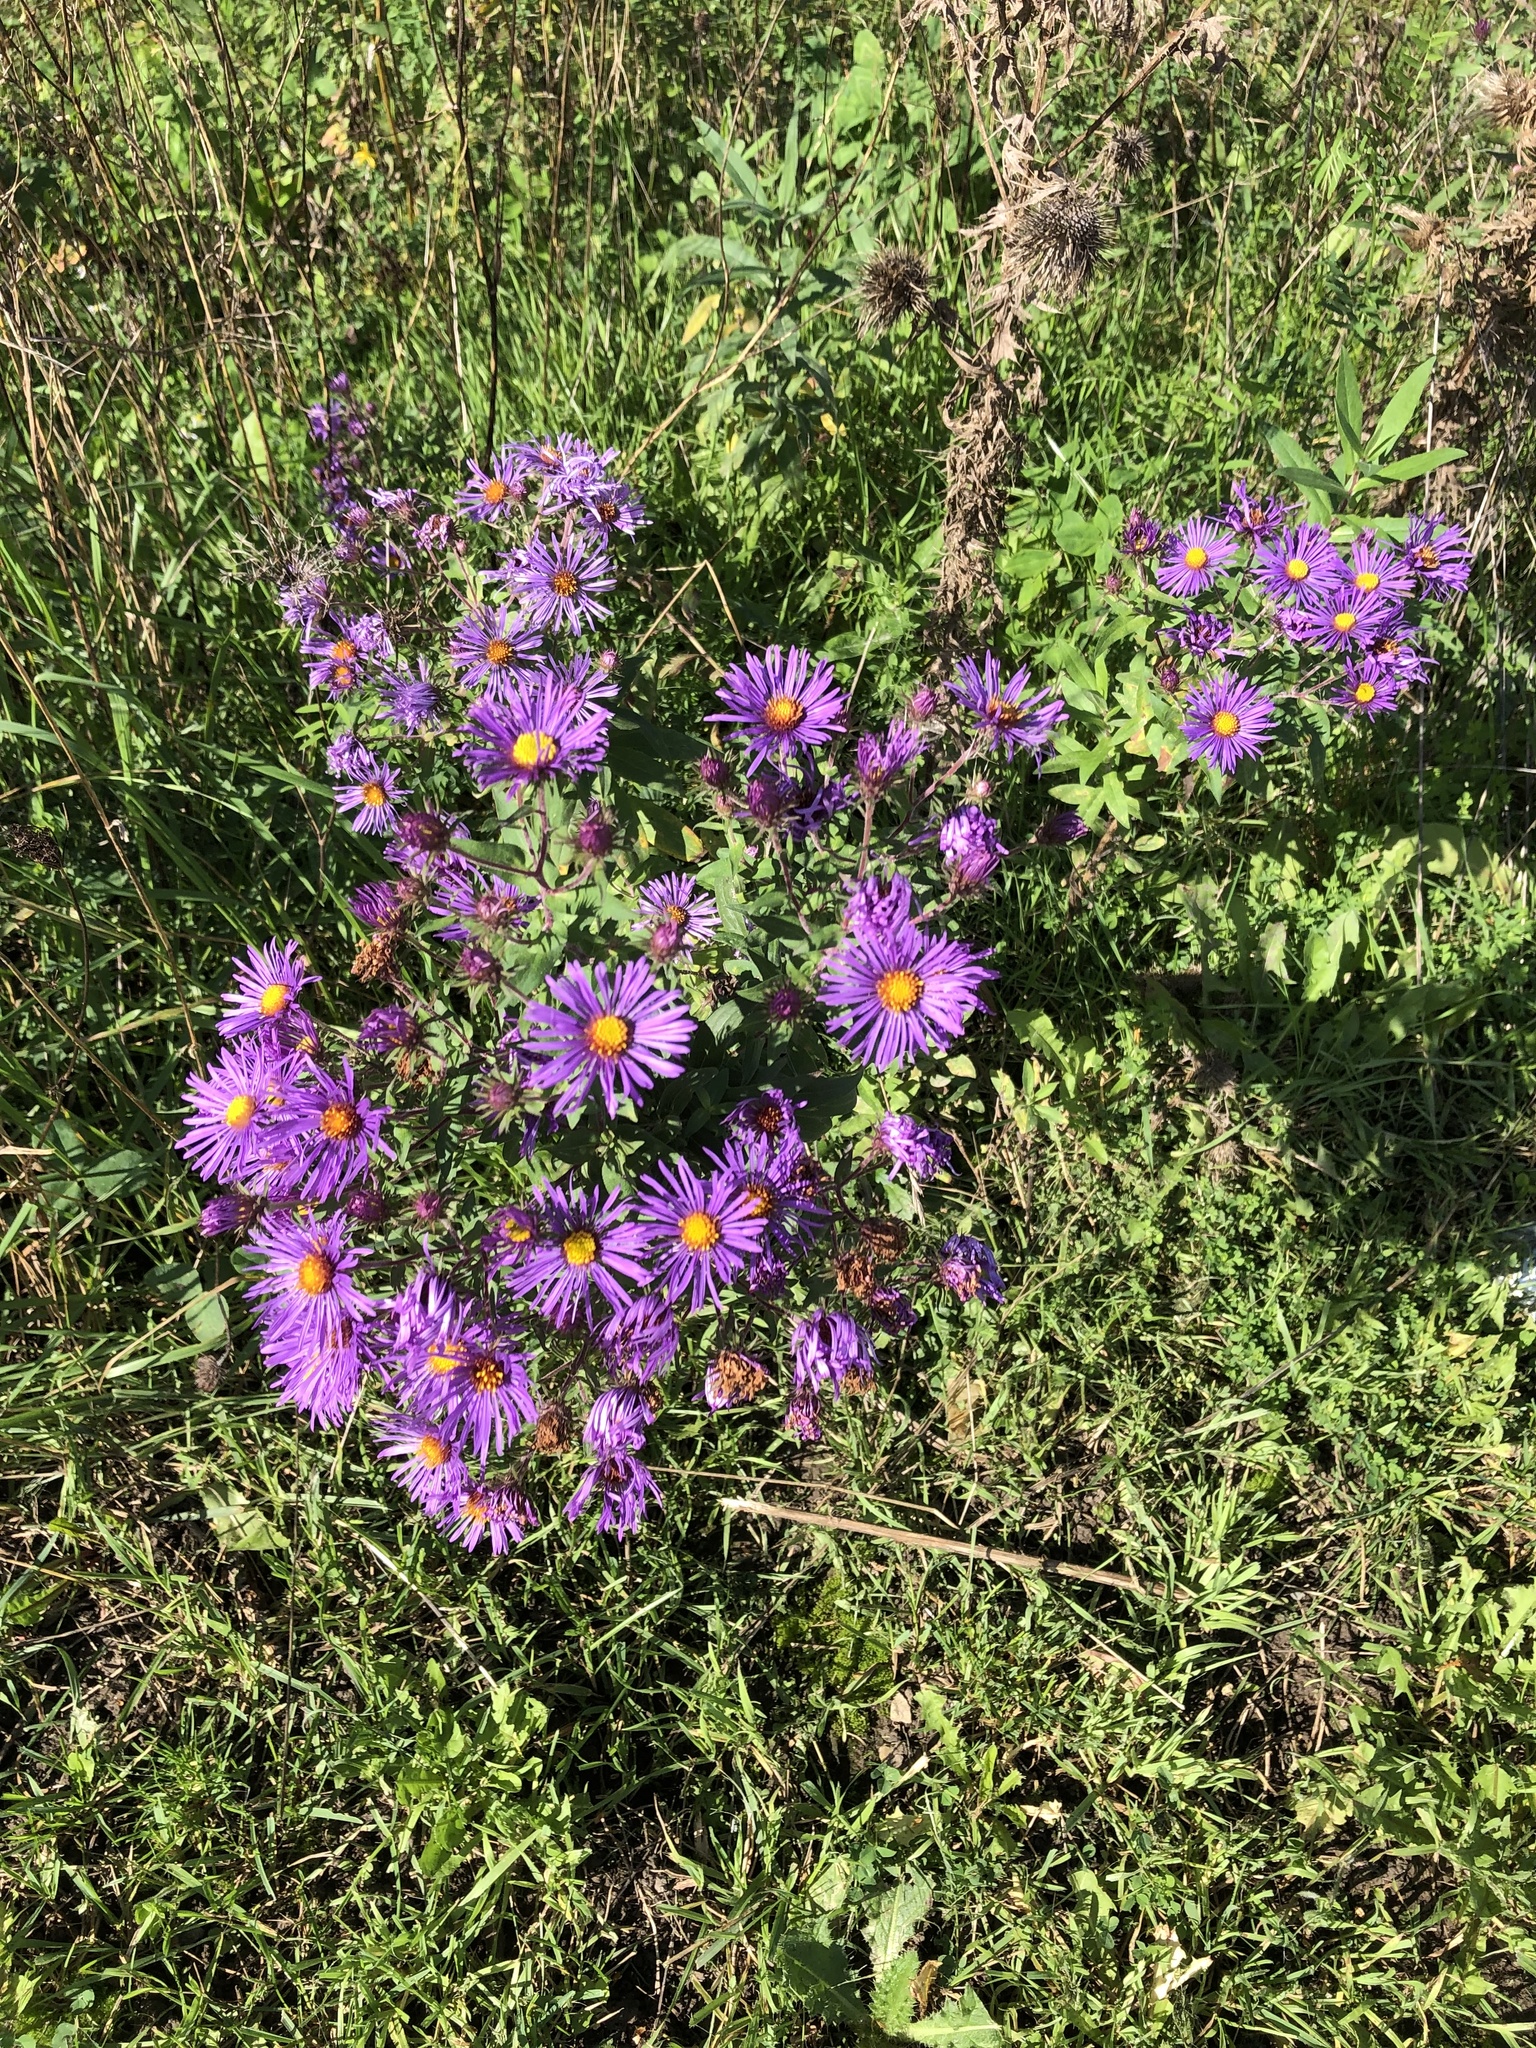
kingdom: Plantae
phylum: Tracheophyta
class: Magnoliopsida
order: Asterales
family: Asteraceae
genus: Symphyotrichum
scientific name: Symphyotrichum novae-angliae
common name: Michaelmas daisy
